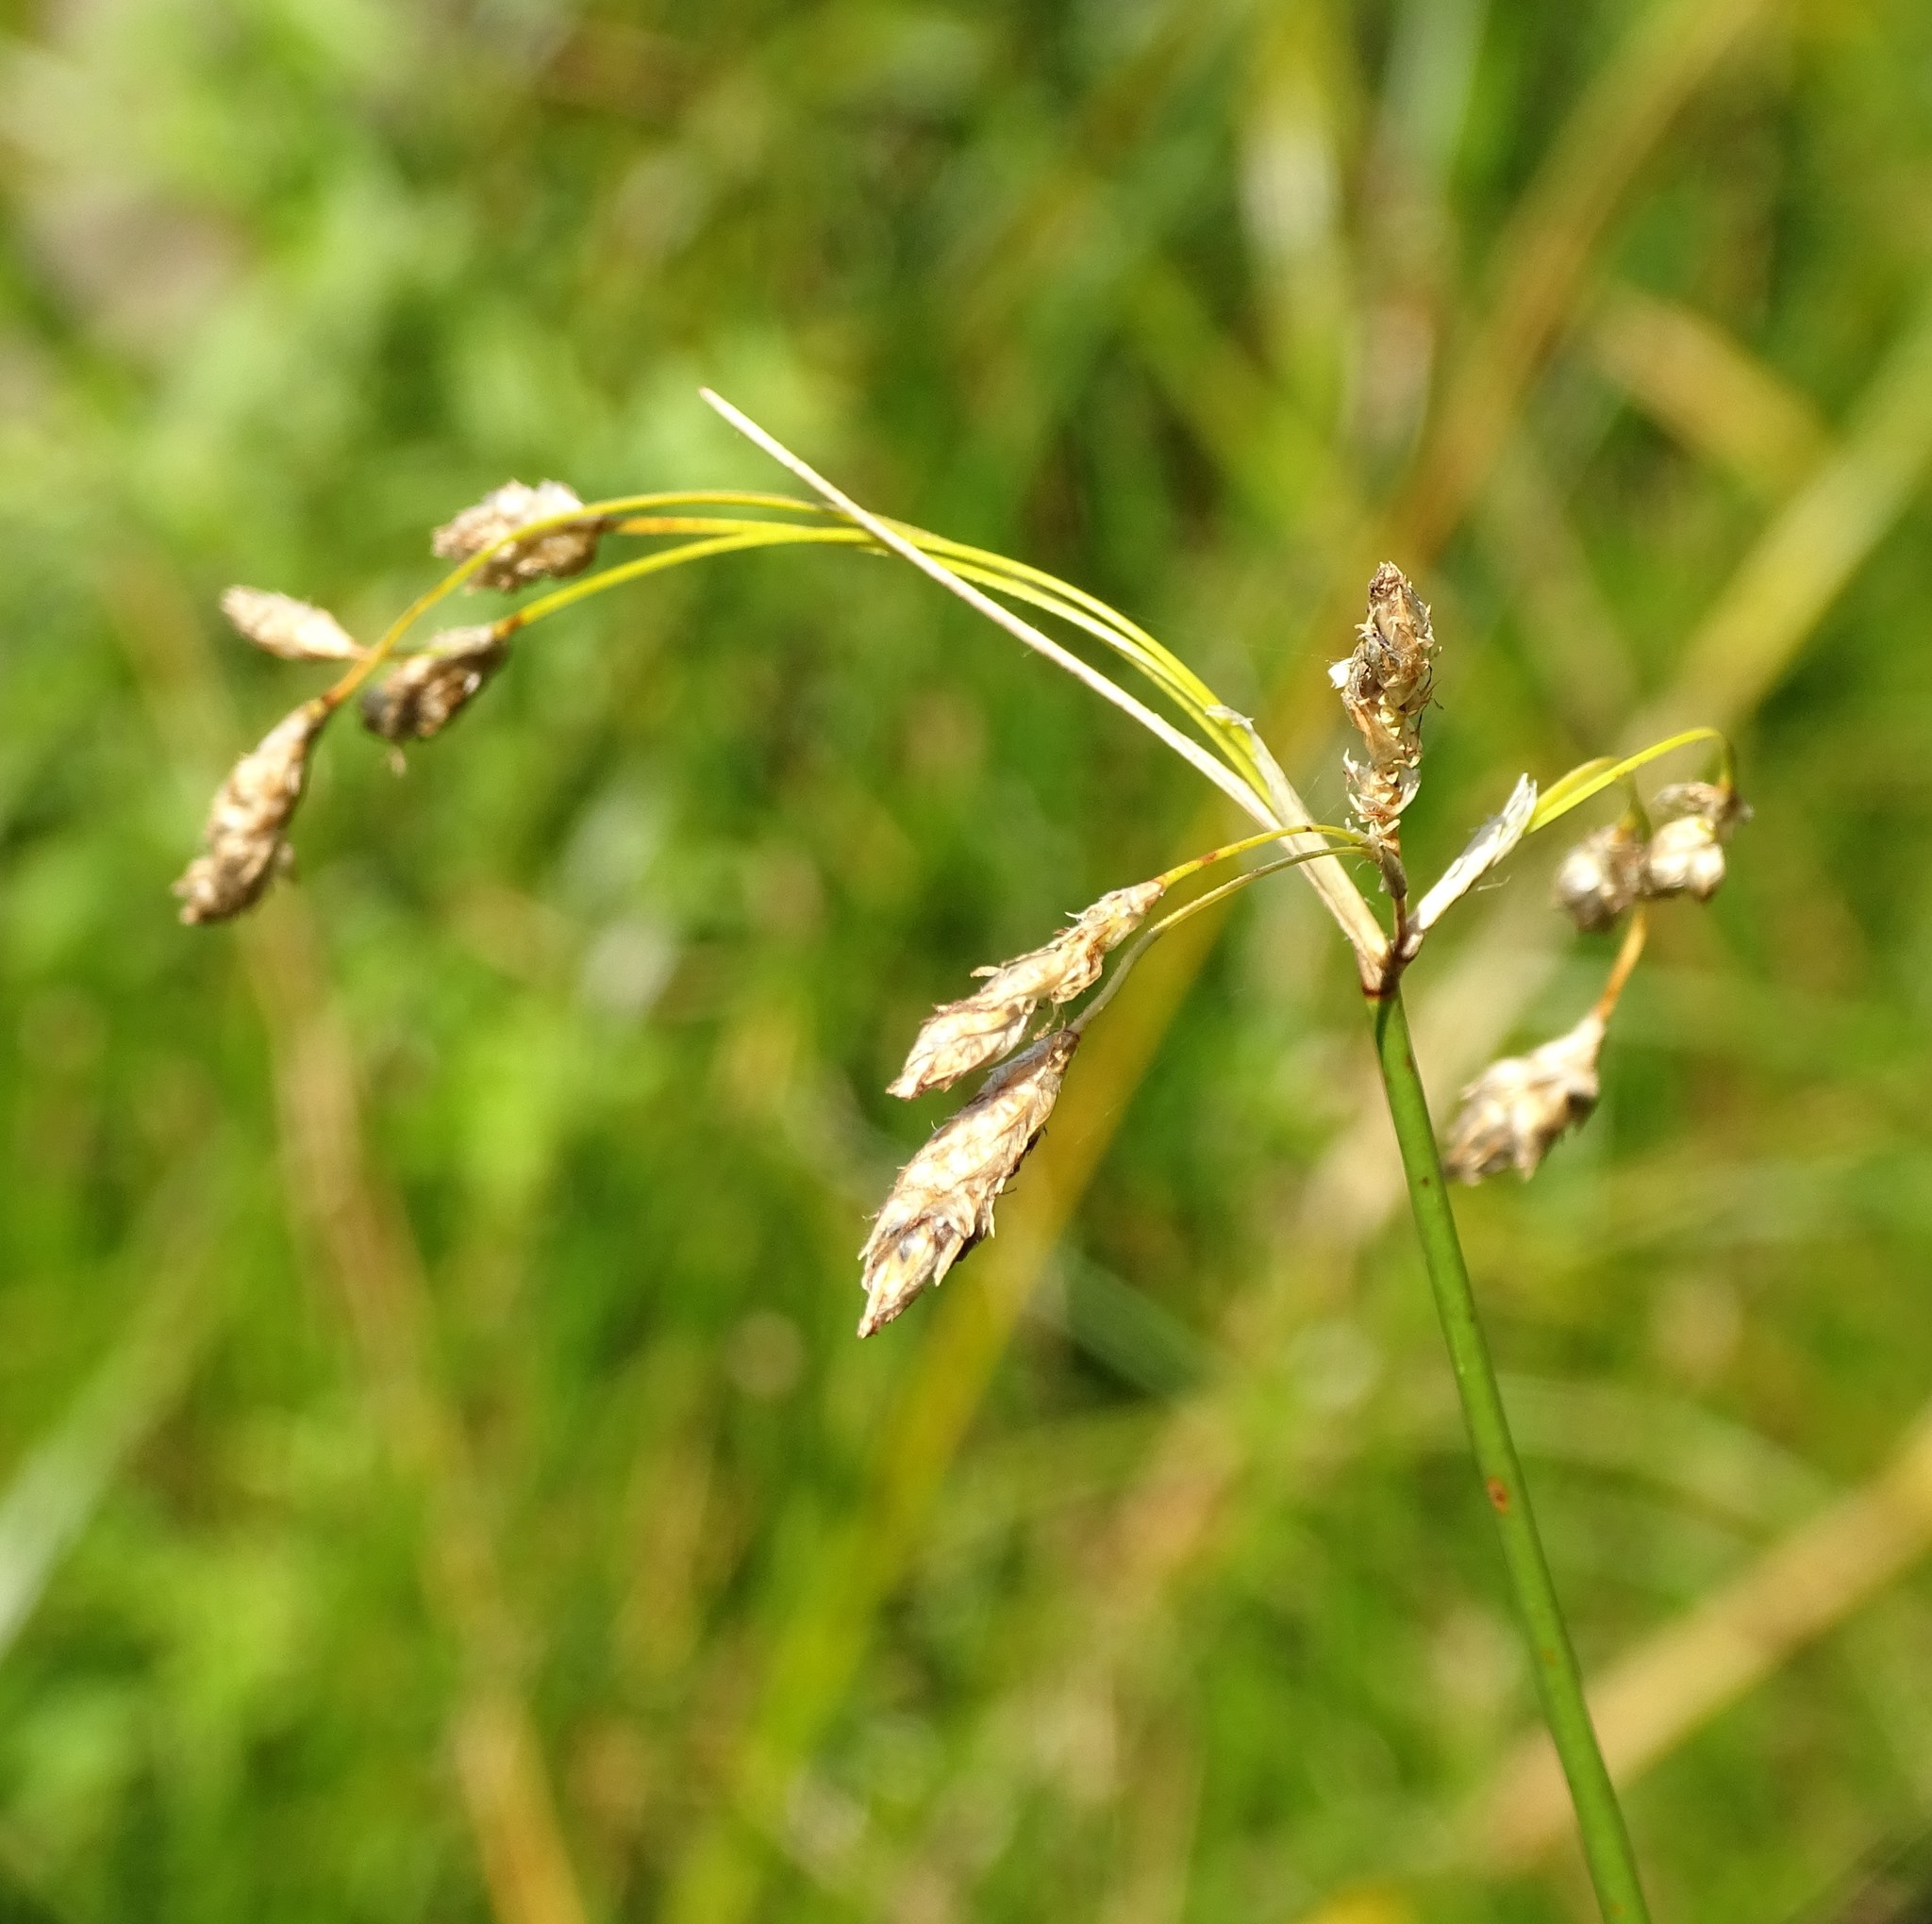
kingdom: Plantae
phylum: Tracheophyta
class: Liliopsida
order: Poales
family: Cyperaceae
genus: Schoenoplectus
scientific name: Schoenoplectus heterochaetus
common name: Pale great bulrush
